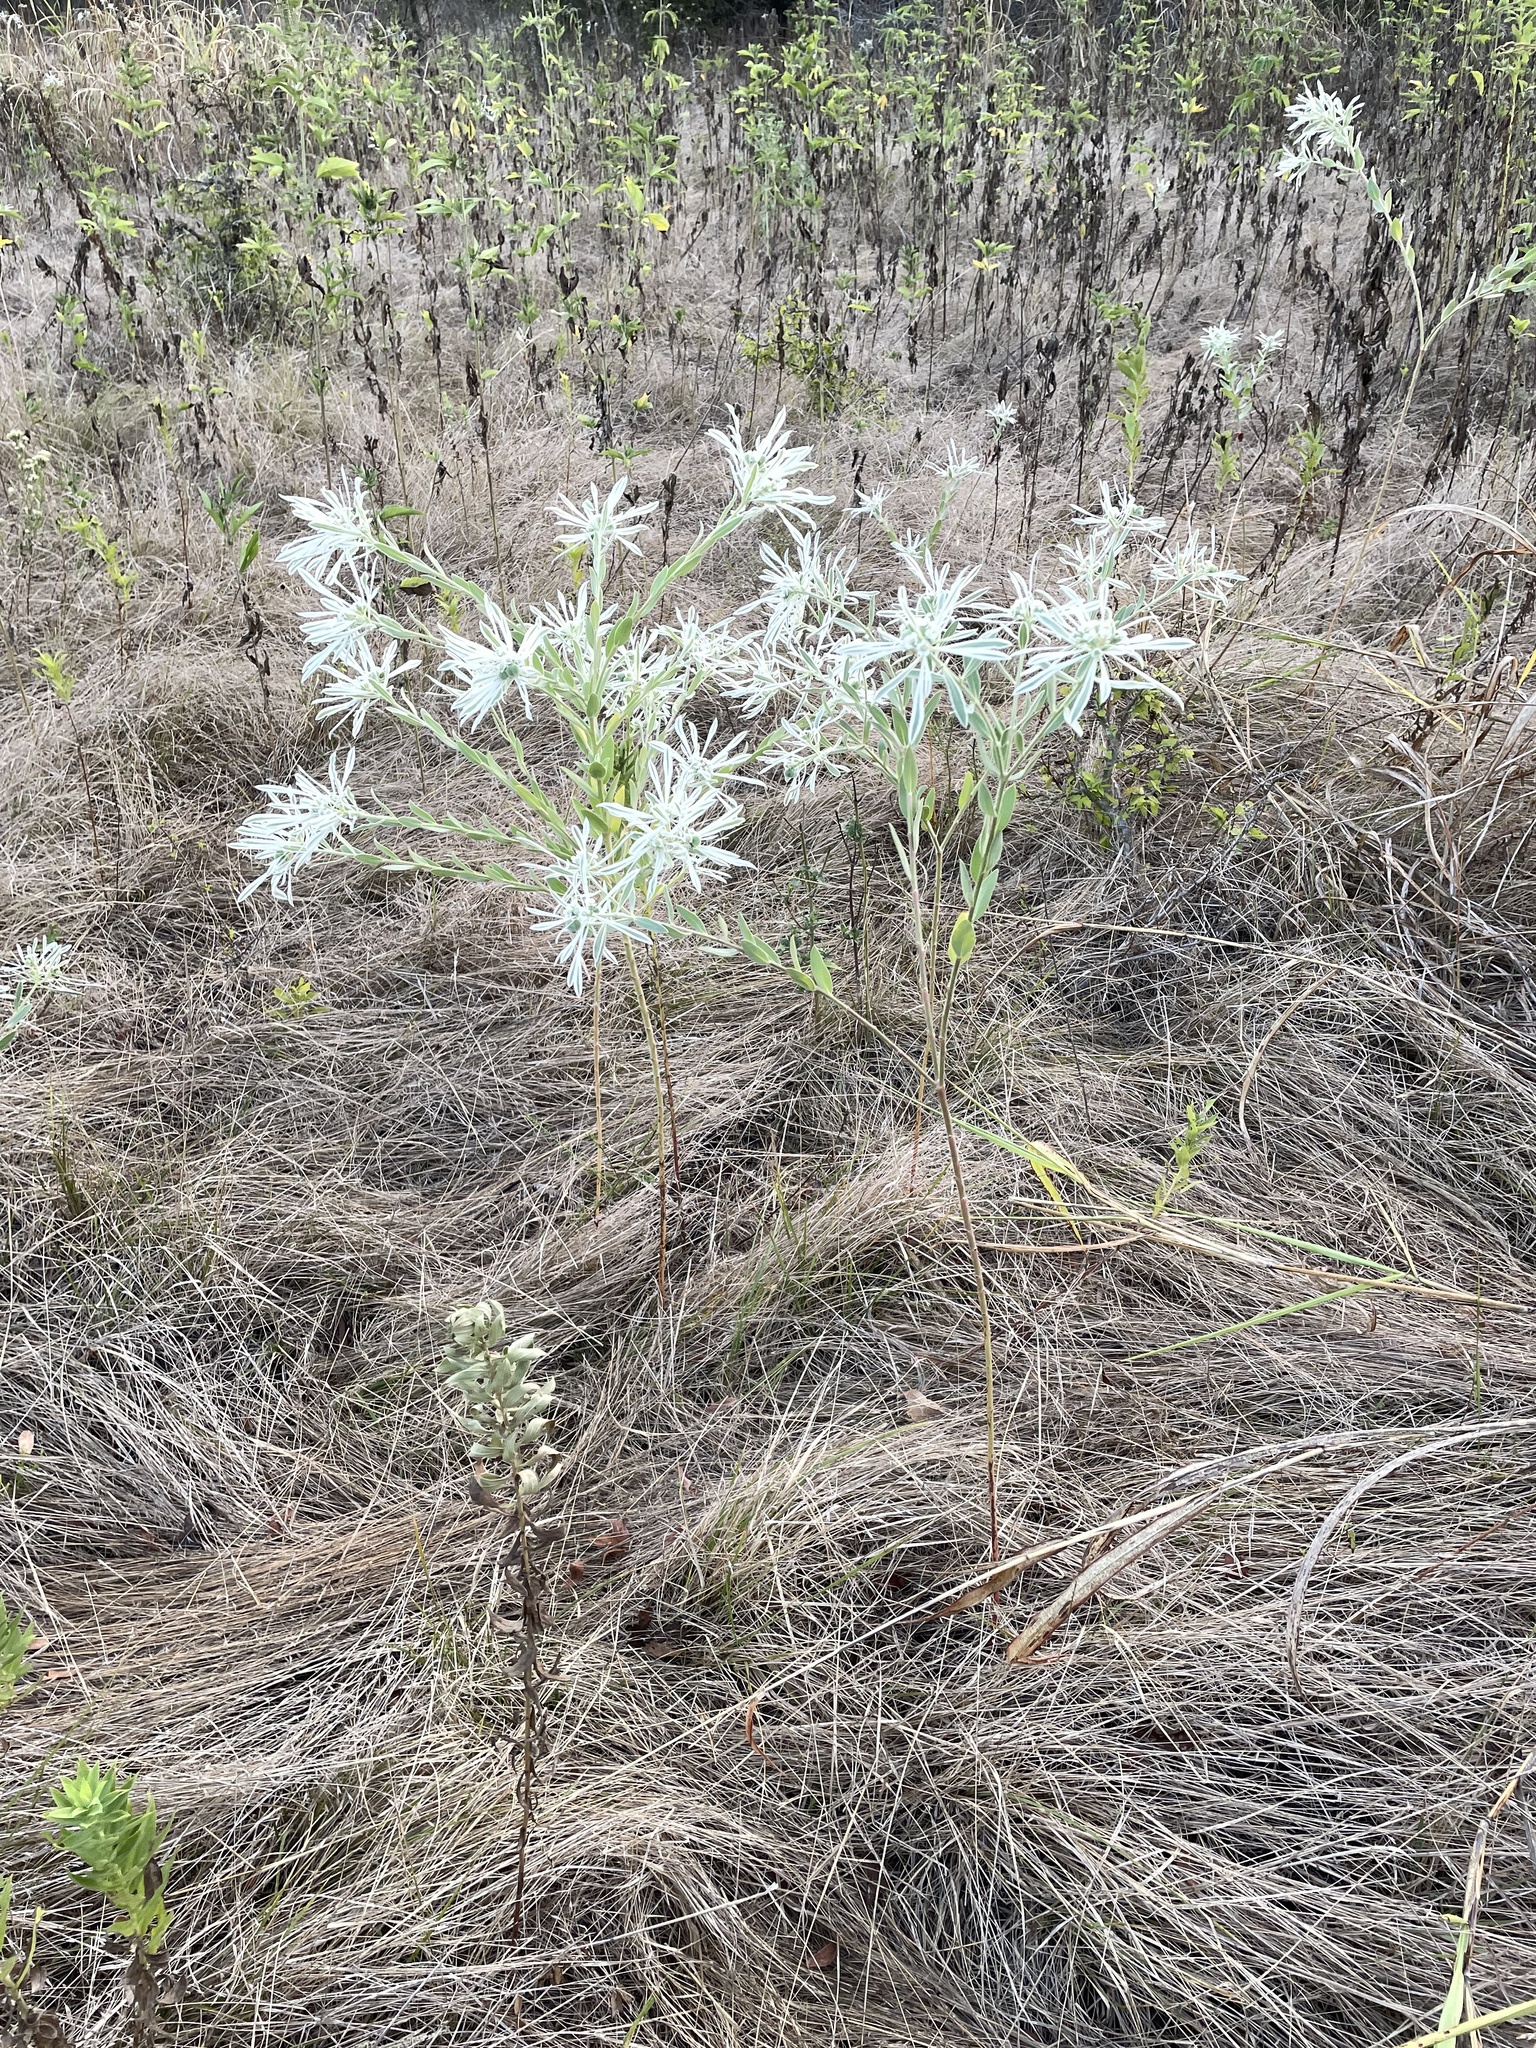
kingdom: Plantae
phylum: Tracheophyta
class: Magnoliopsida
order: Malpighiales
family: Euphorbiaceae
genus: Euphorbia
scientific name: Euphorbia bicolor
